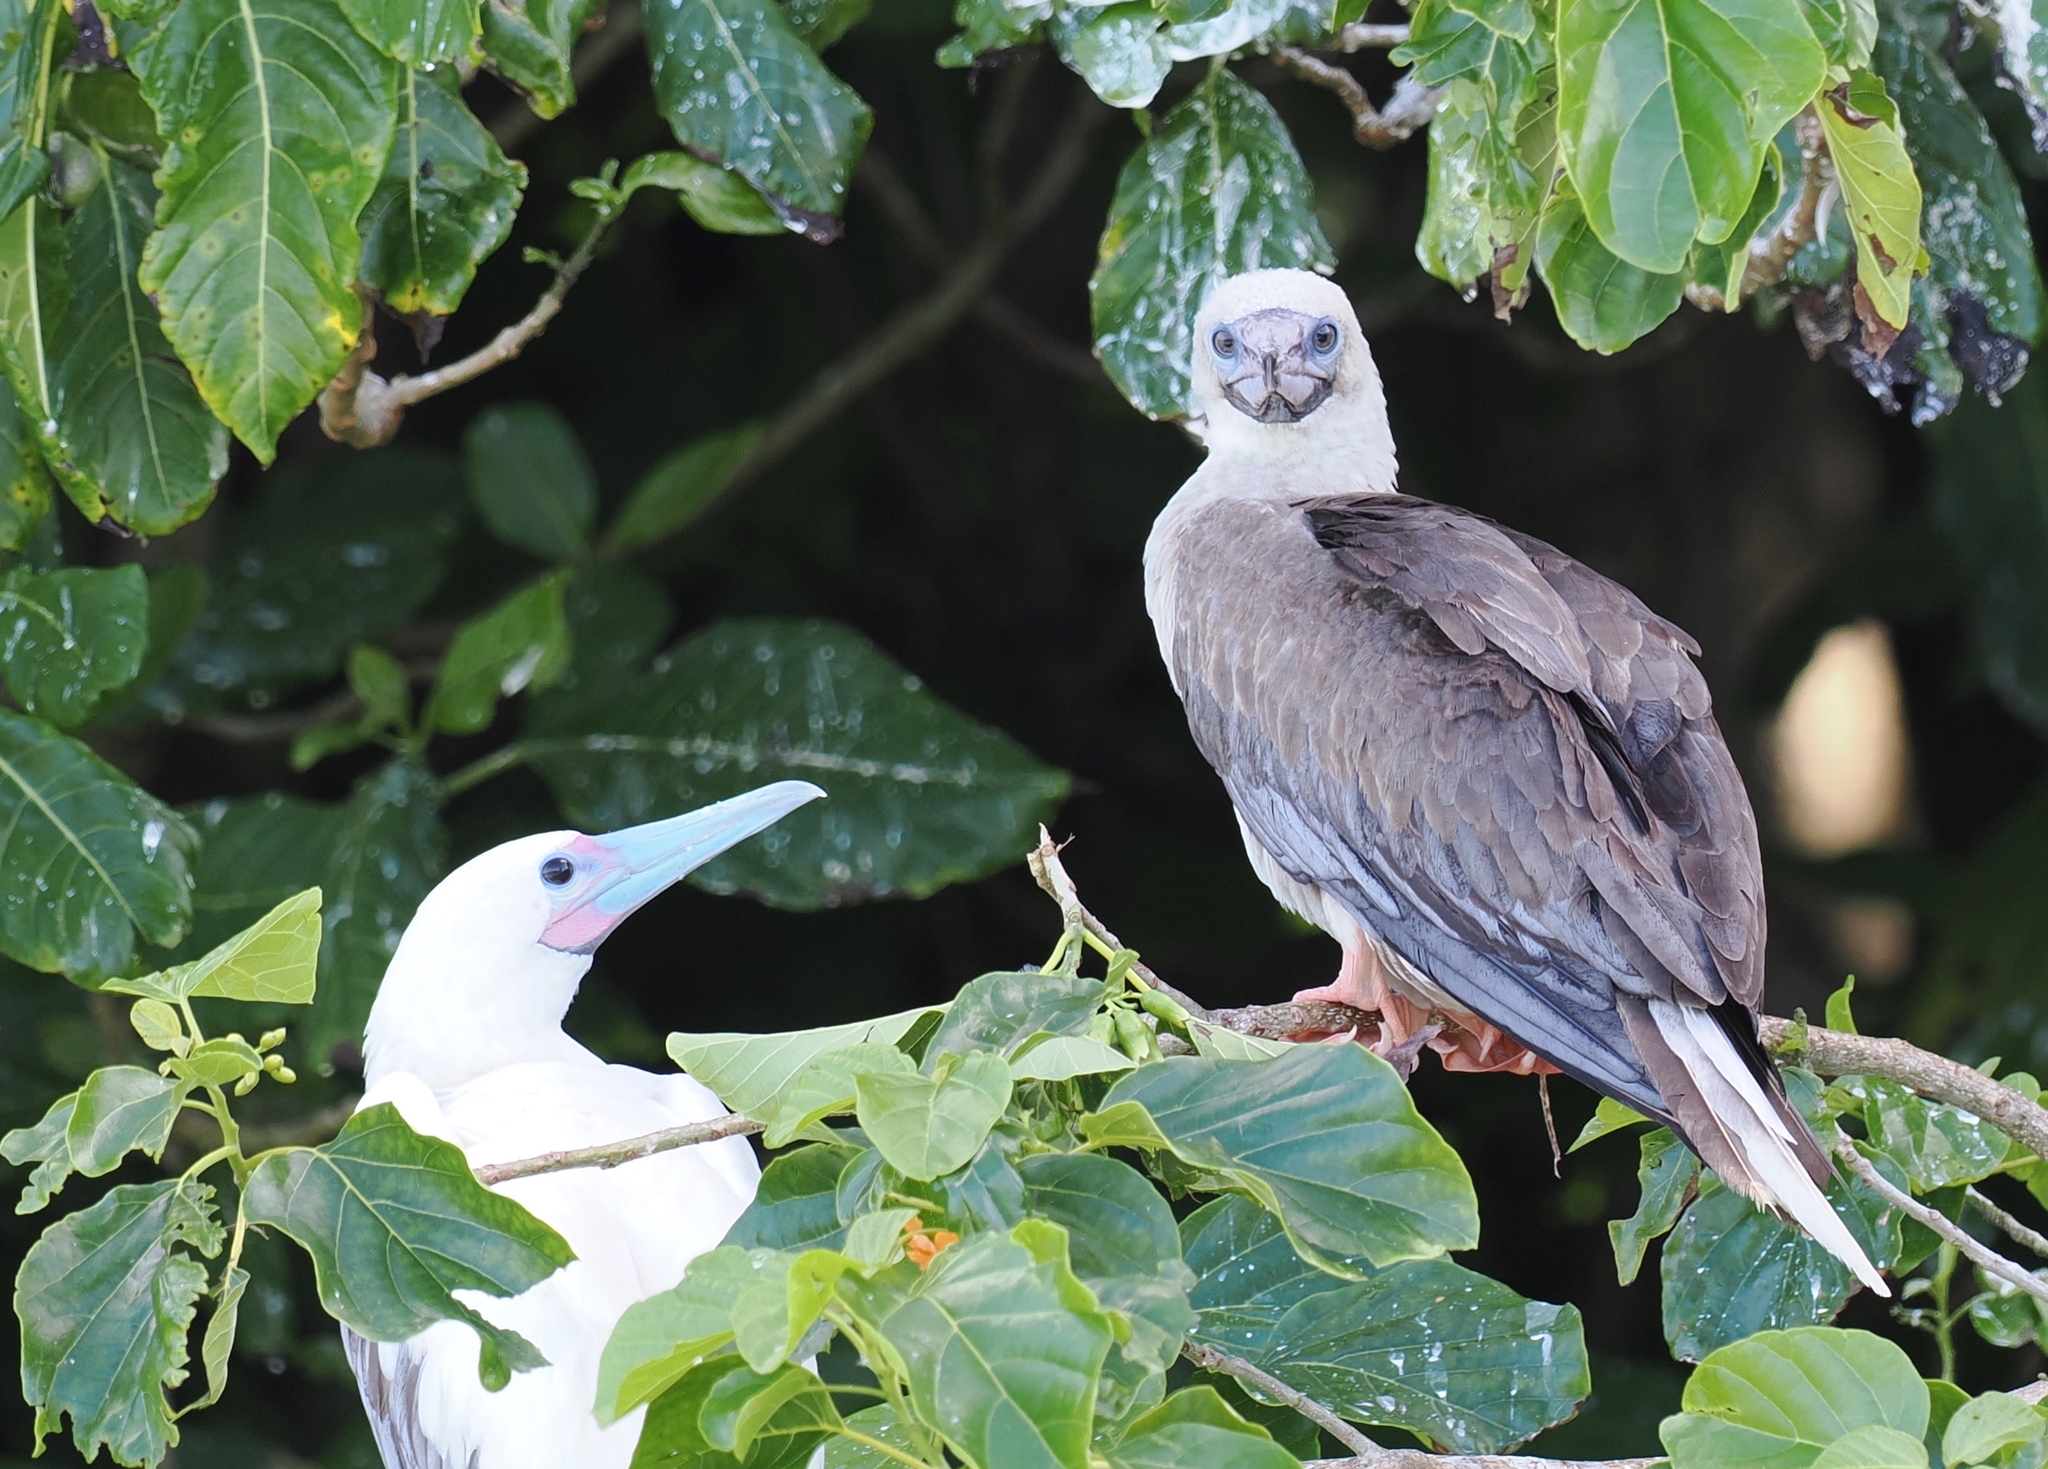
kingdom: Animalia
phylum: Chordata
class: Aves
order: Suliformes
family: Sulidae
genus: Sula
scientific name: Sula sula
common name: Red-footed booby
